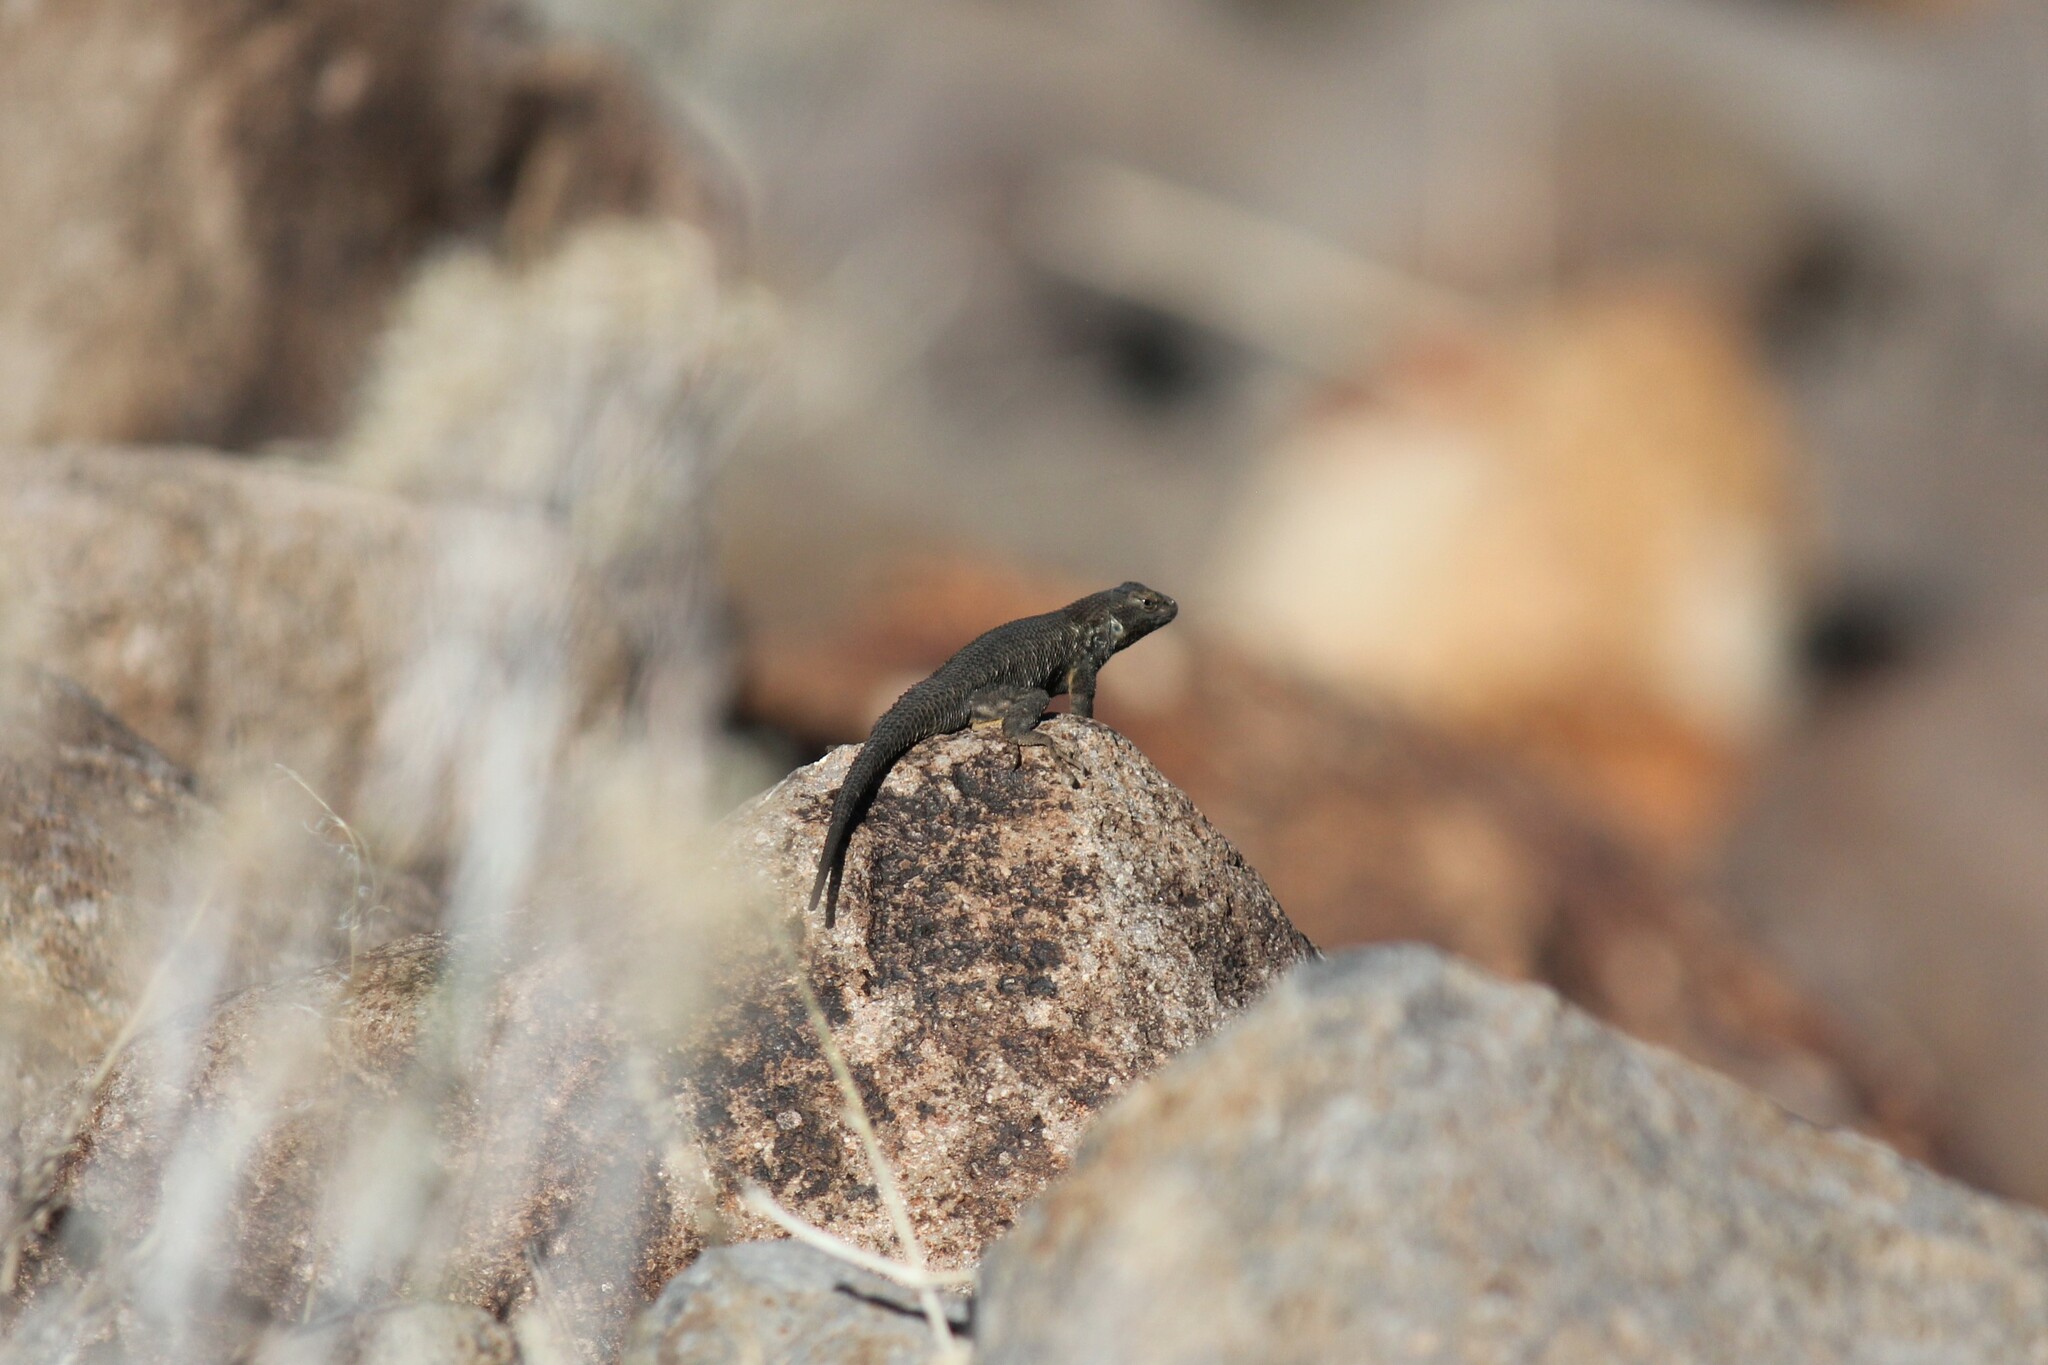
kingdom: Animalia
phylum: Chordata
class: Squamata
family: Phrynosomatidae
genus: Sceloporus
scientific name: Sceloporus occidentalis
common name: Western fence lizard
